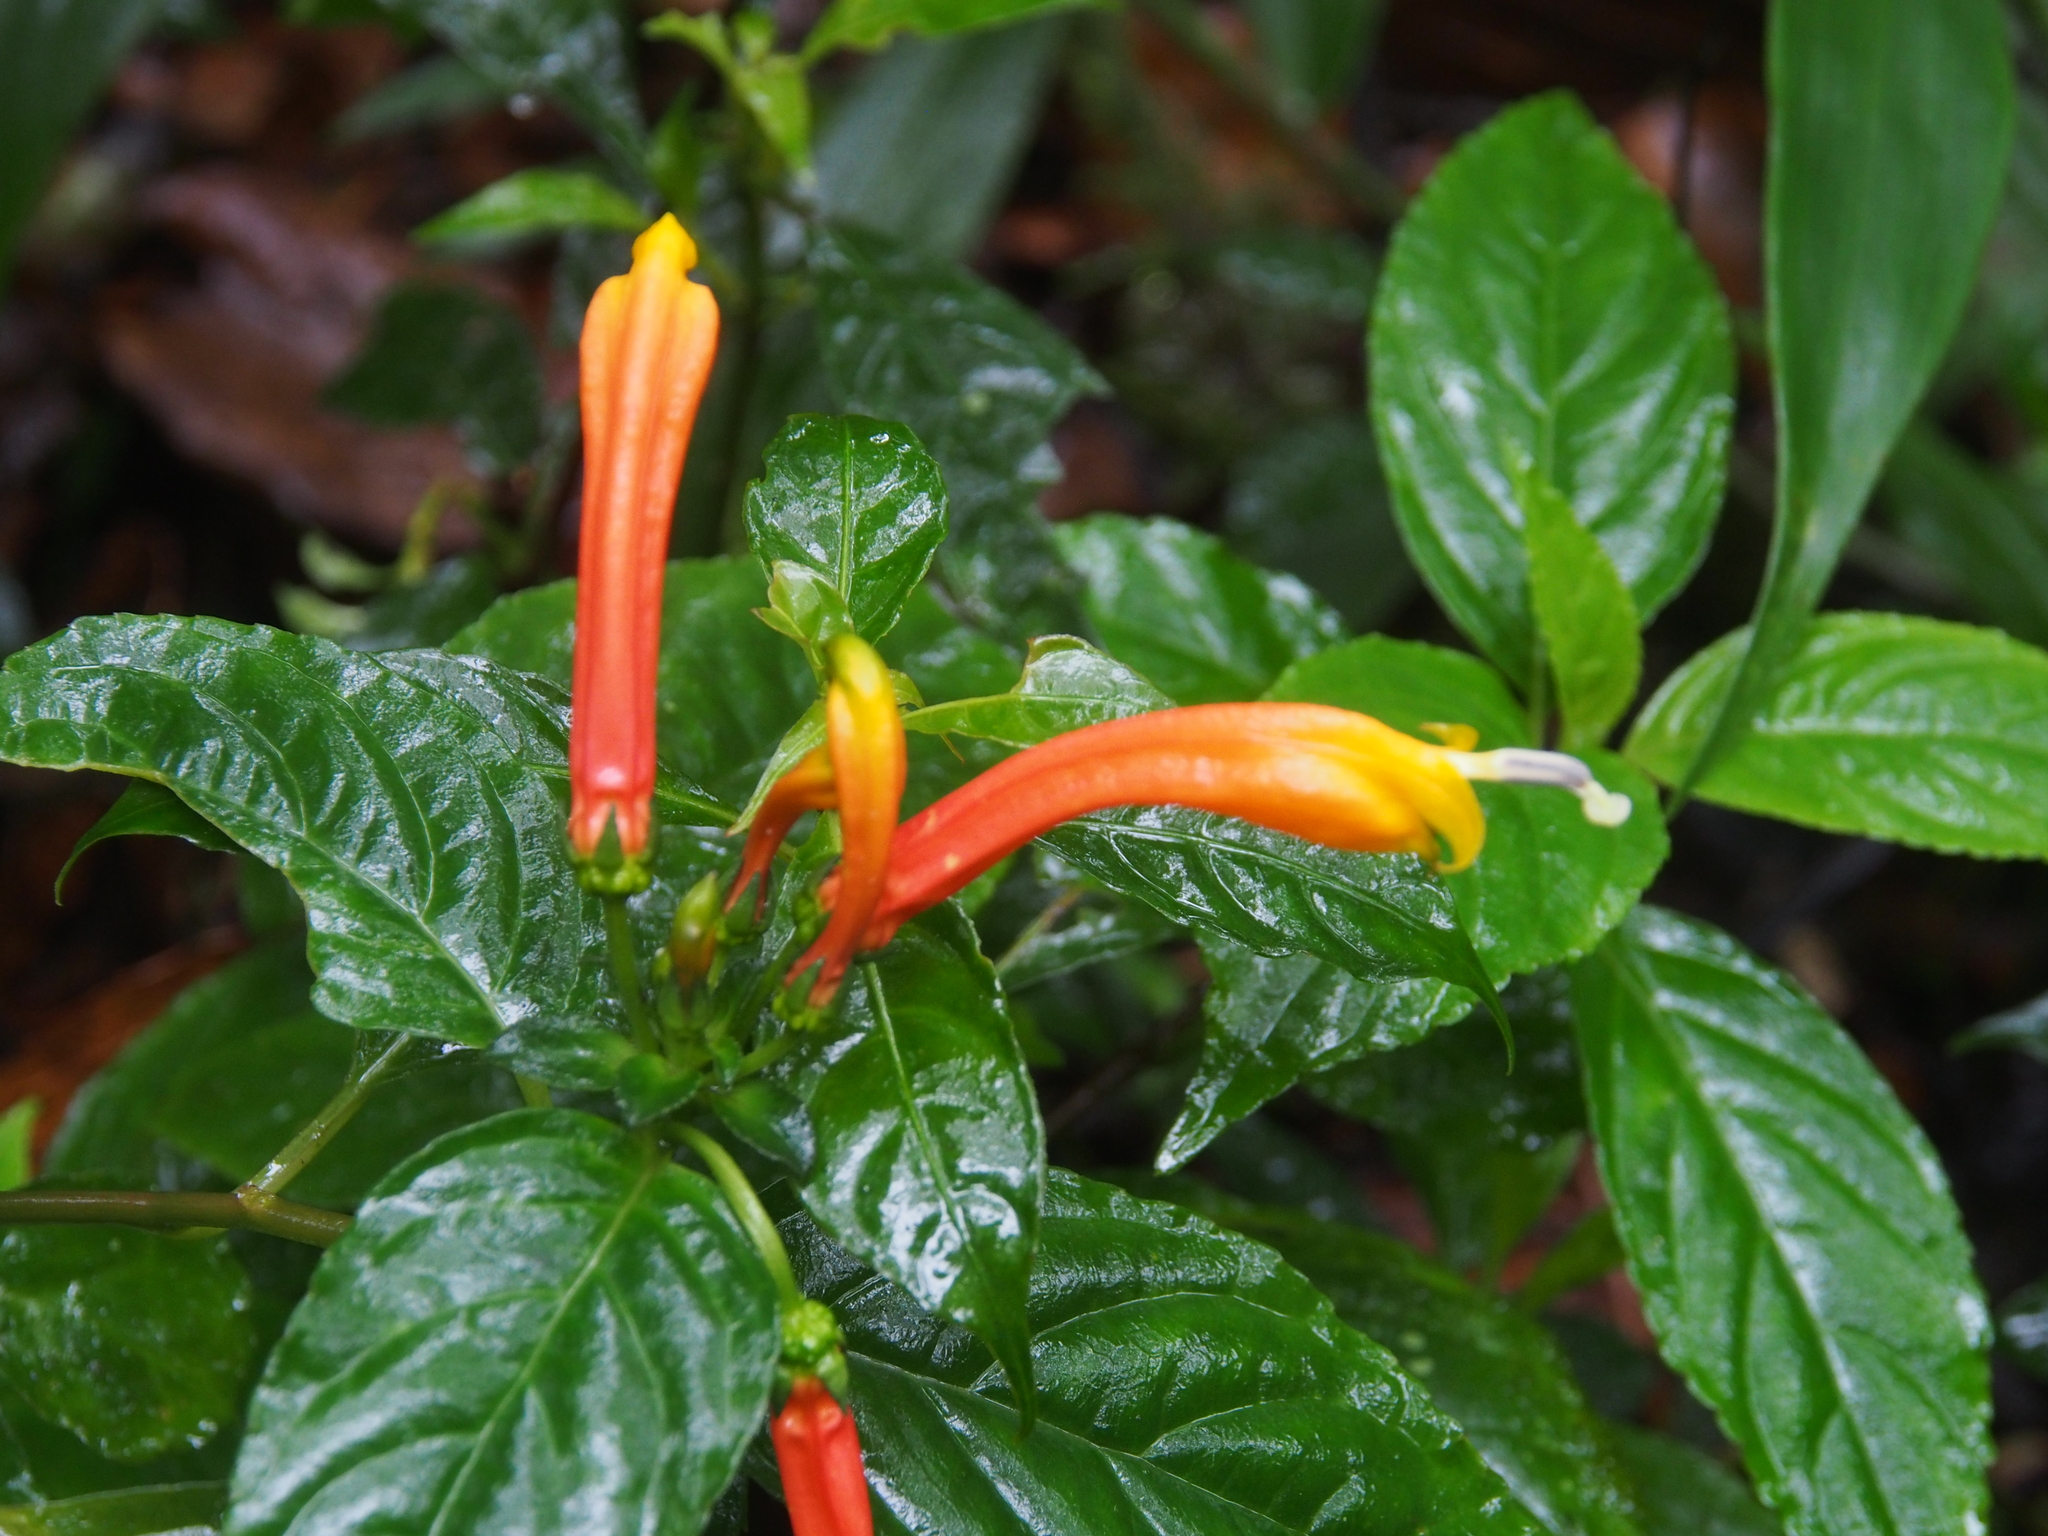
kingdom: Plantae
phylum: Tracheophyta
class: Magnoliopsida
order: Asterales
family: Campanulaceae
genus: Centropogon
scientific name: Centropogon solanifolius
